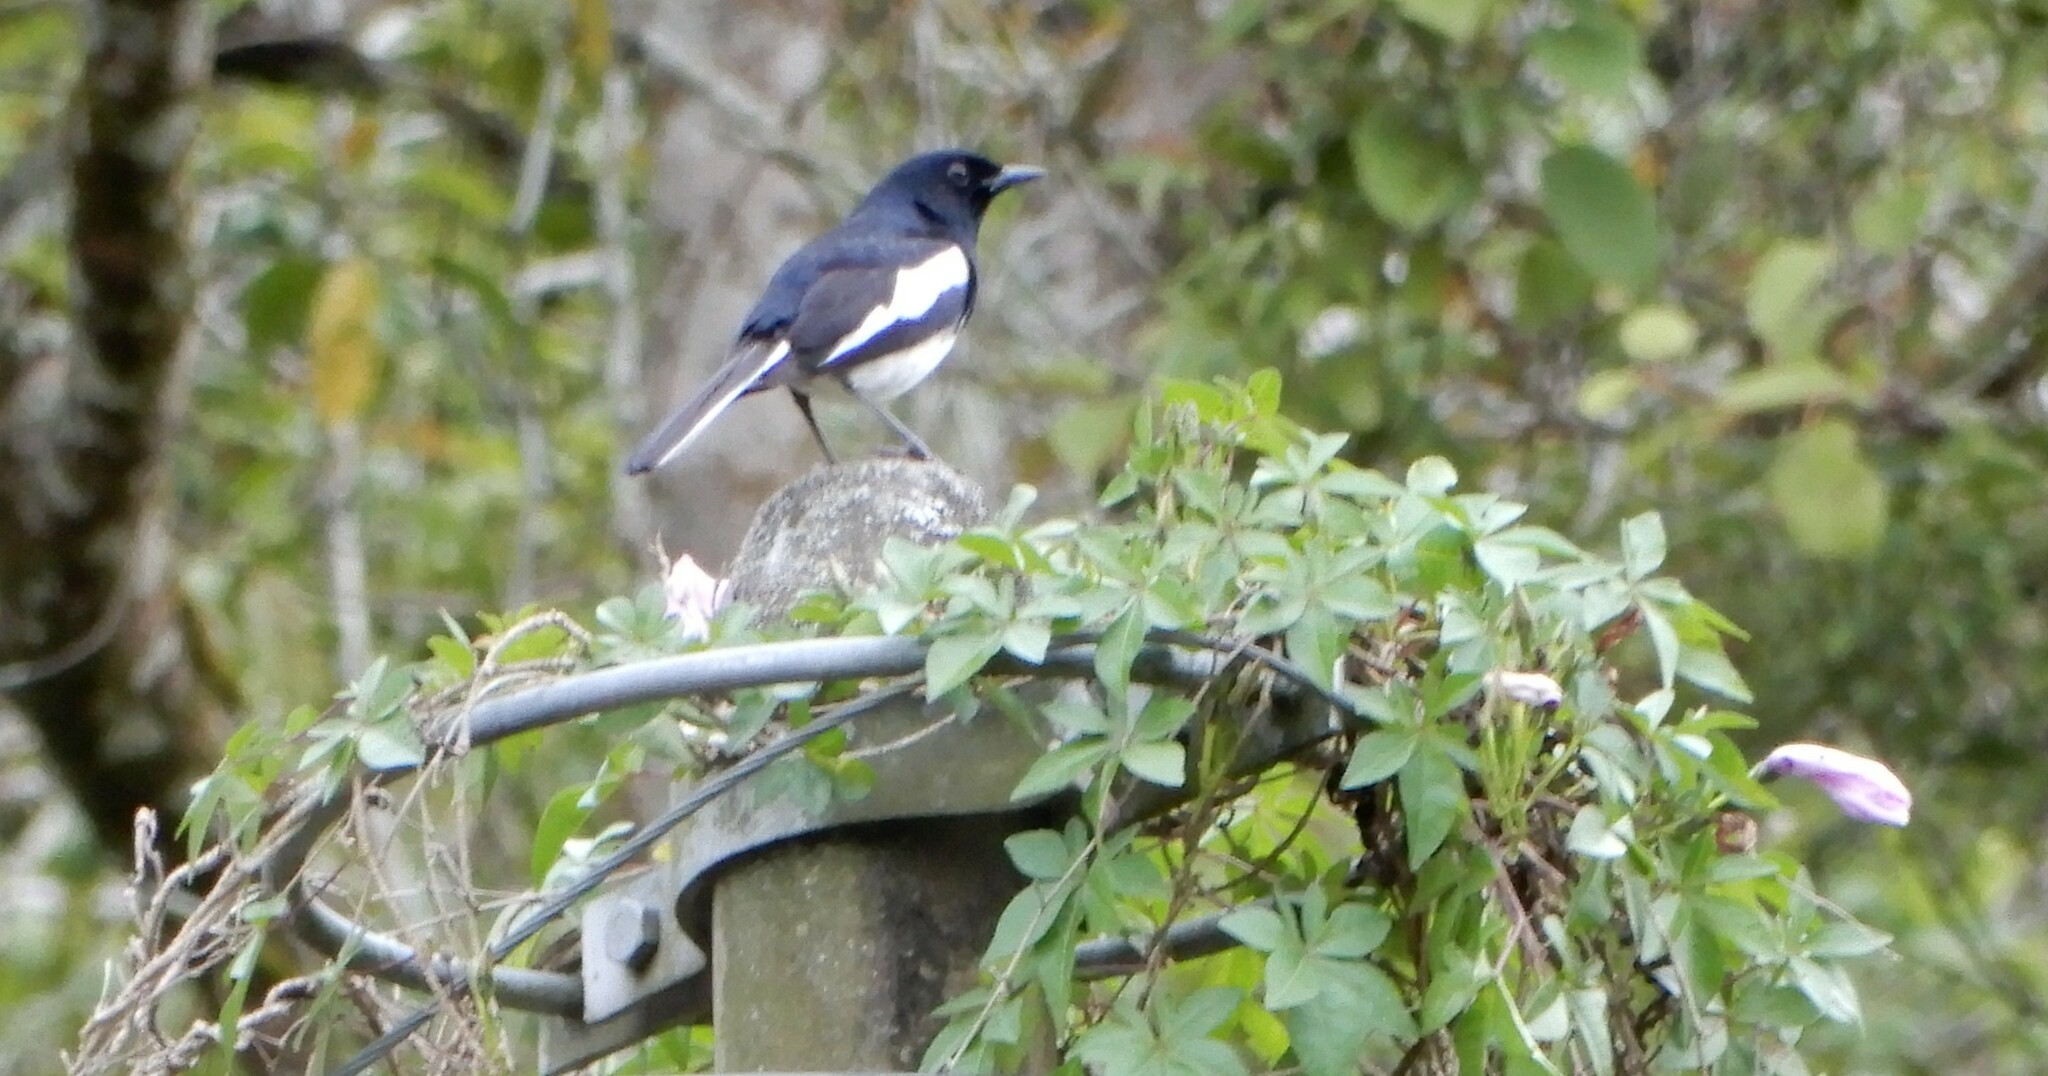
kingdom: Animalia
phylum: Chordata
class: Aves
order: Passeriformes
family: Muscicapidae
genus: Copsychus
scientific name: Copsychus saularis
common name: Oriental magpie-robin
